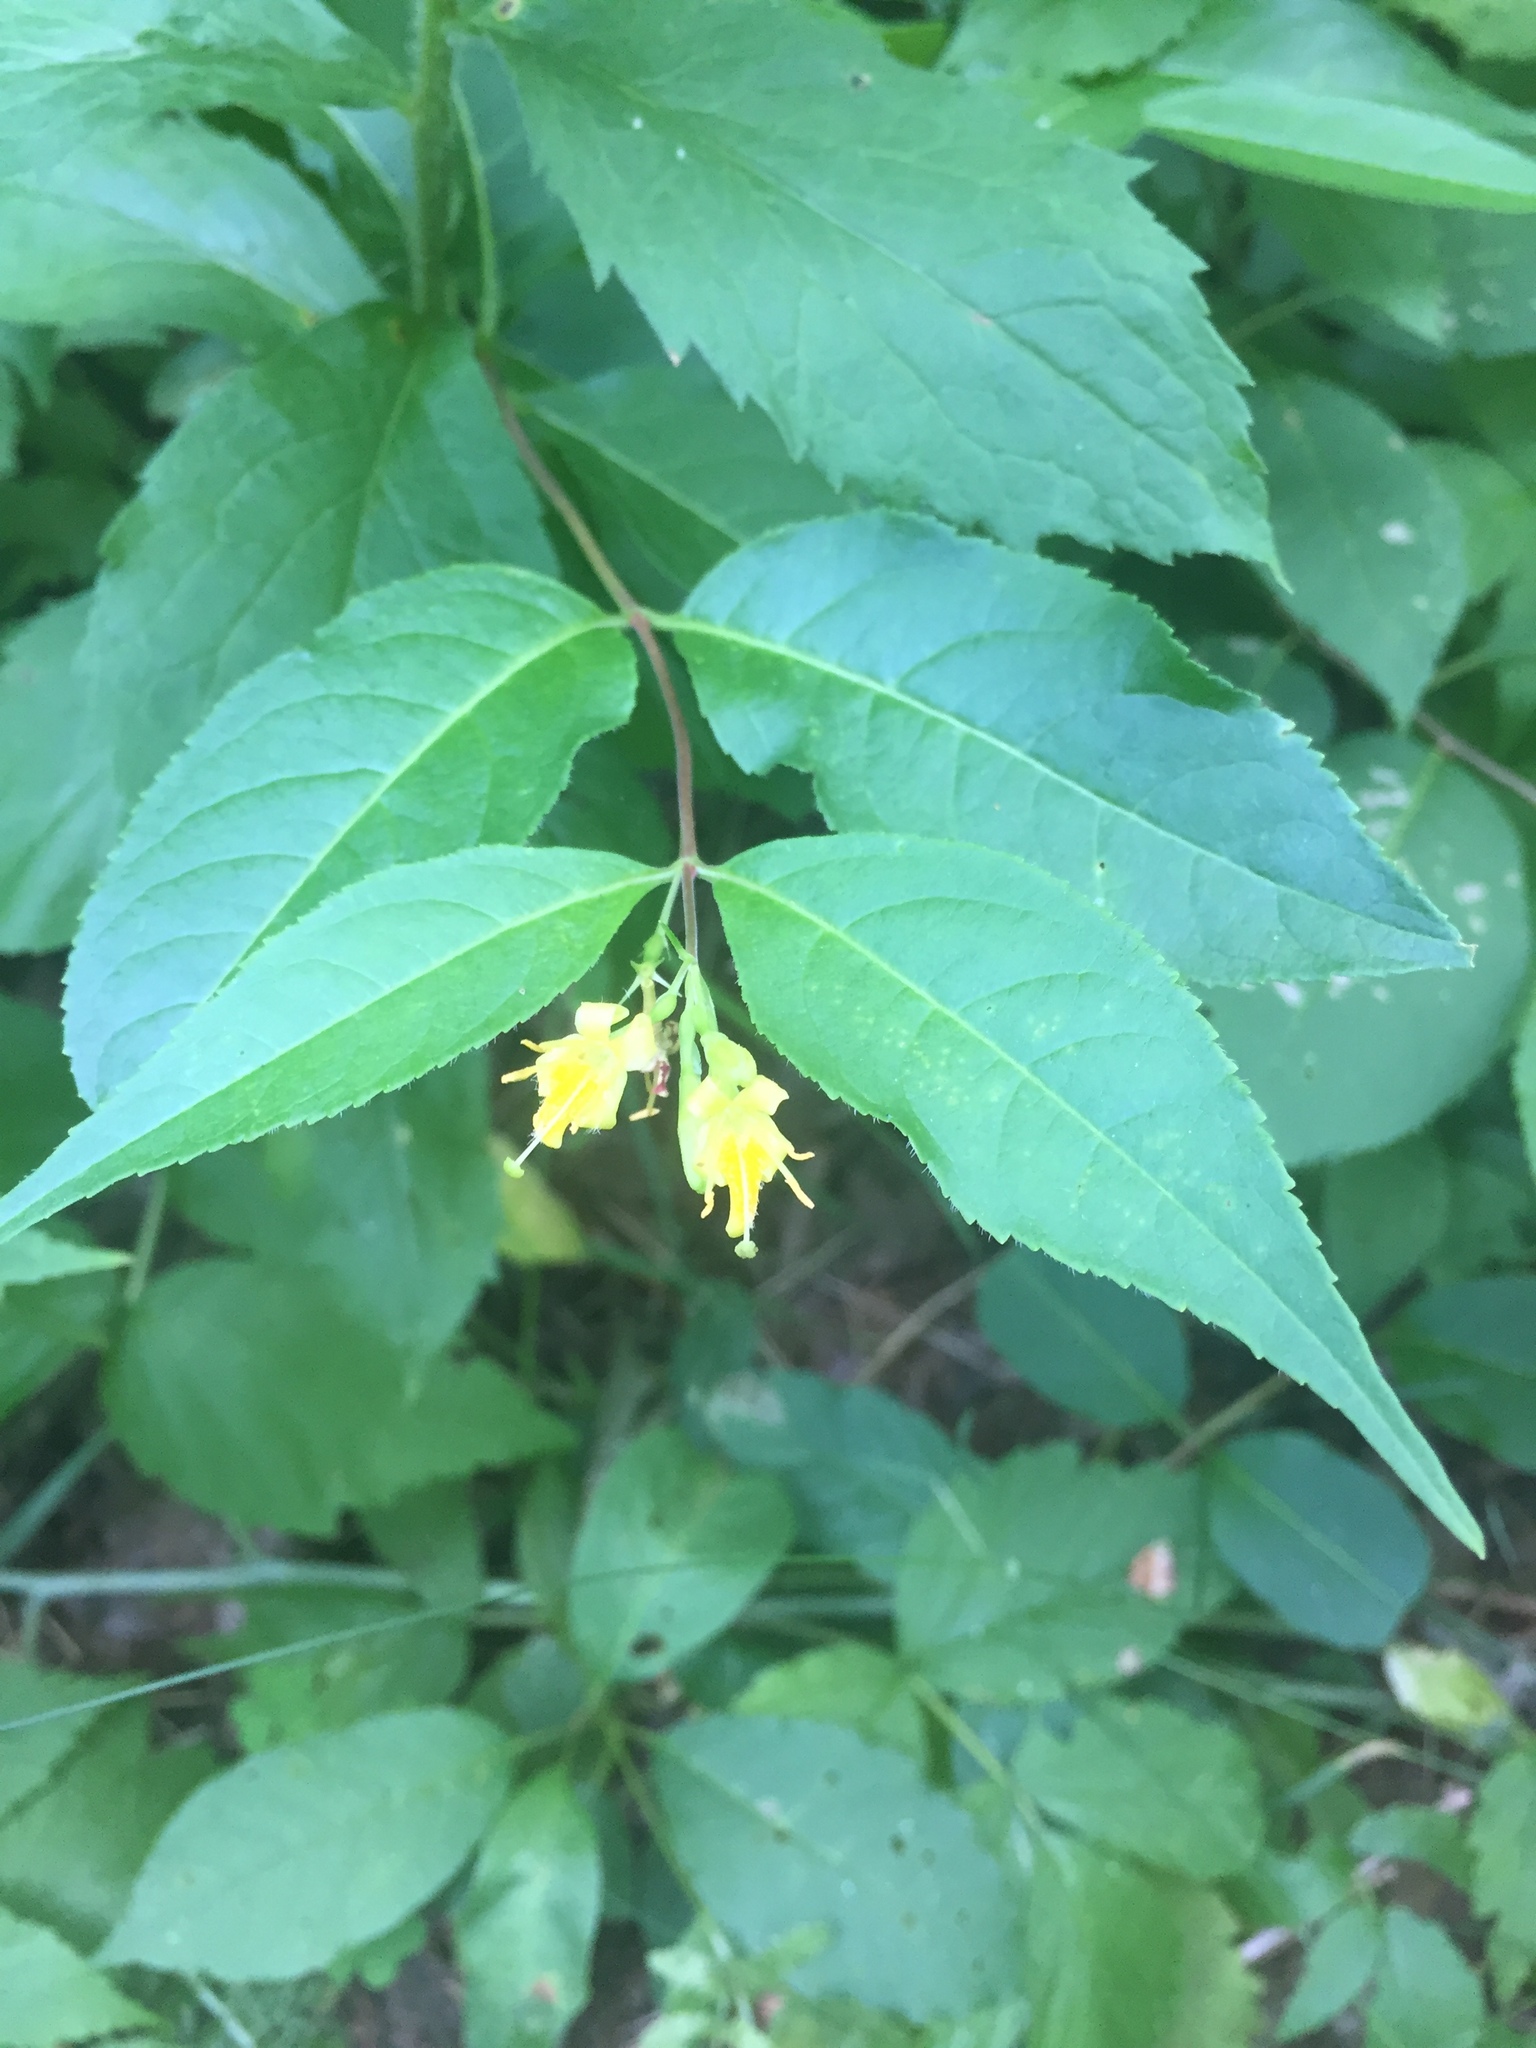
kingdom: Plantae
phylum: Tracheophyta
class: Magnoliopsida
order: Dipsacales
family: Caprifoliaceae
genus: Diervilla
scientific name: Diervilla lonicera
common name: Bush-honeysuckle
